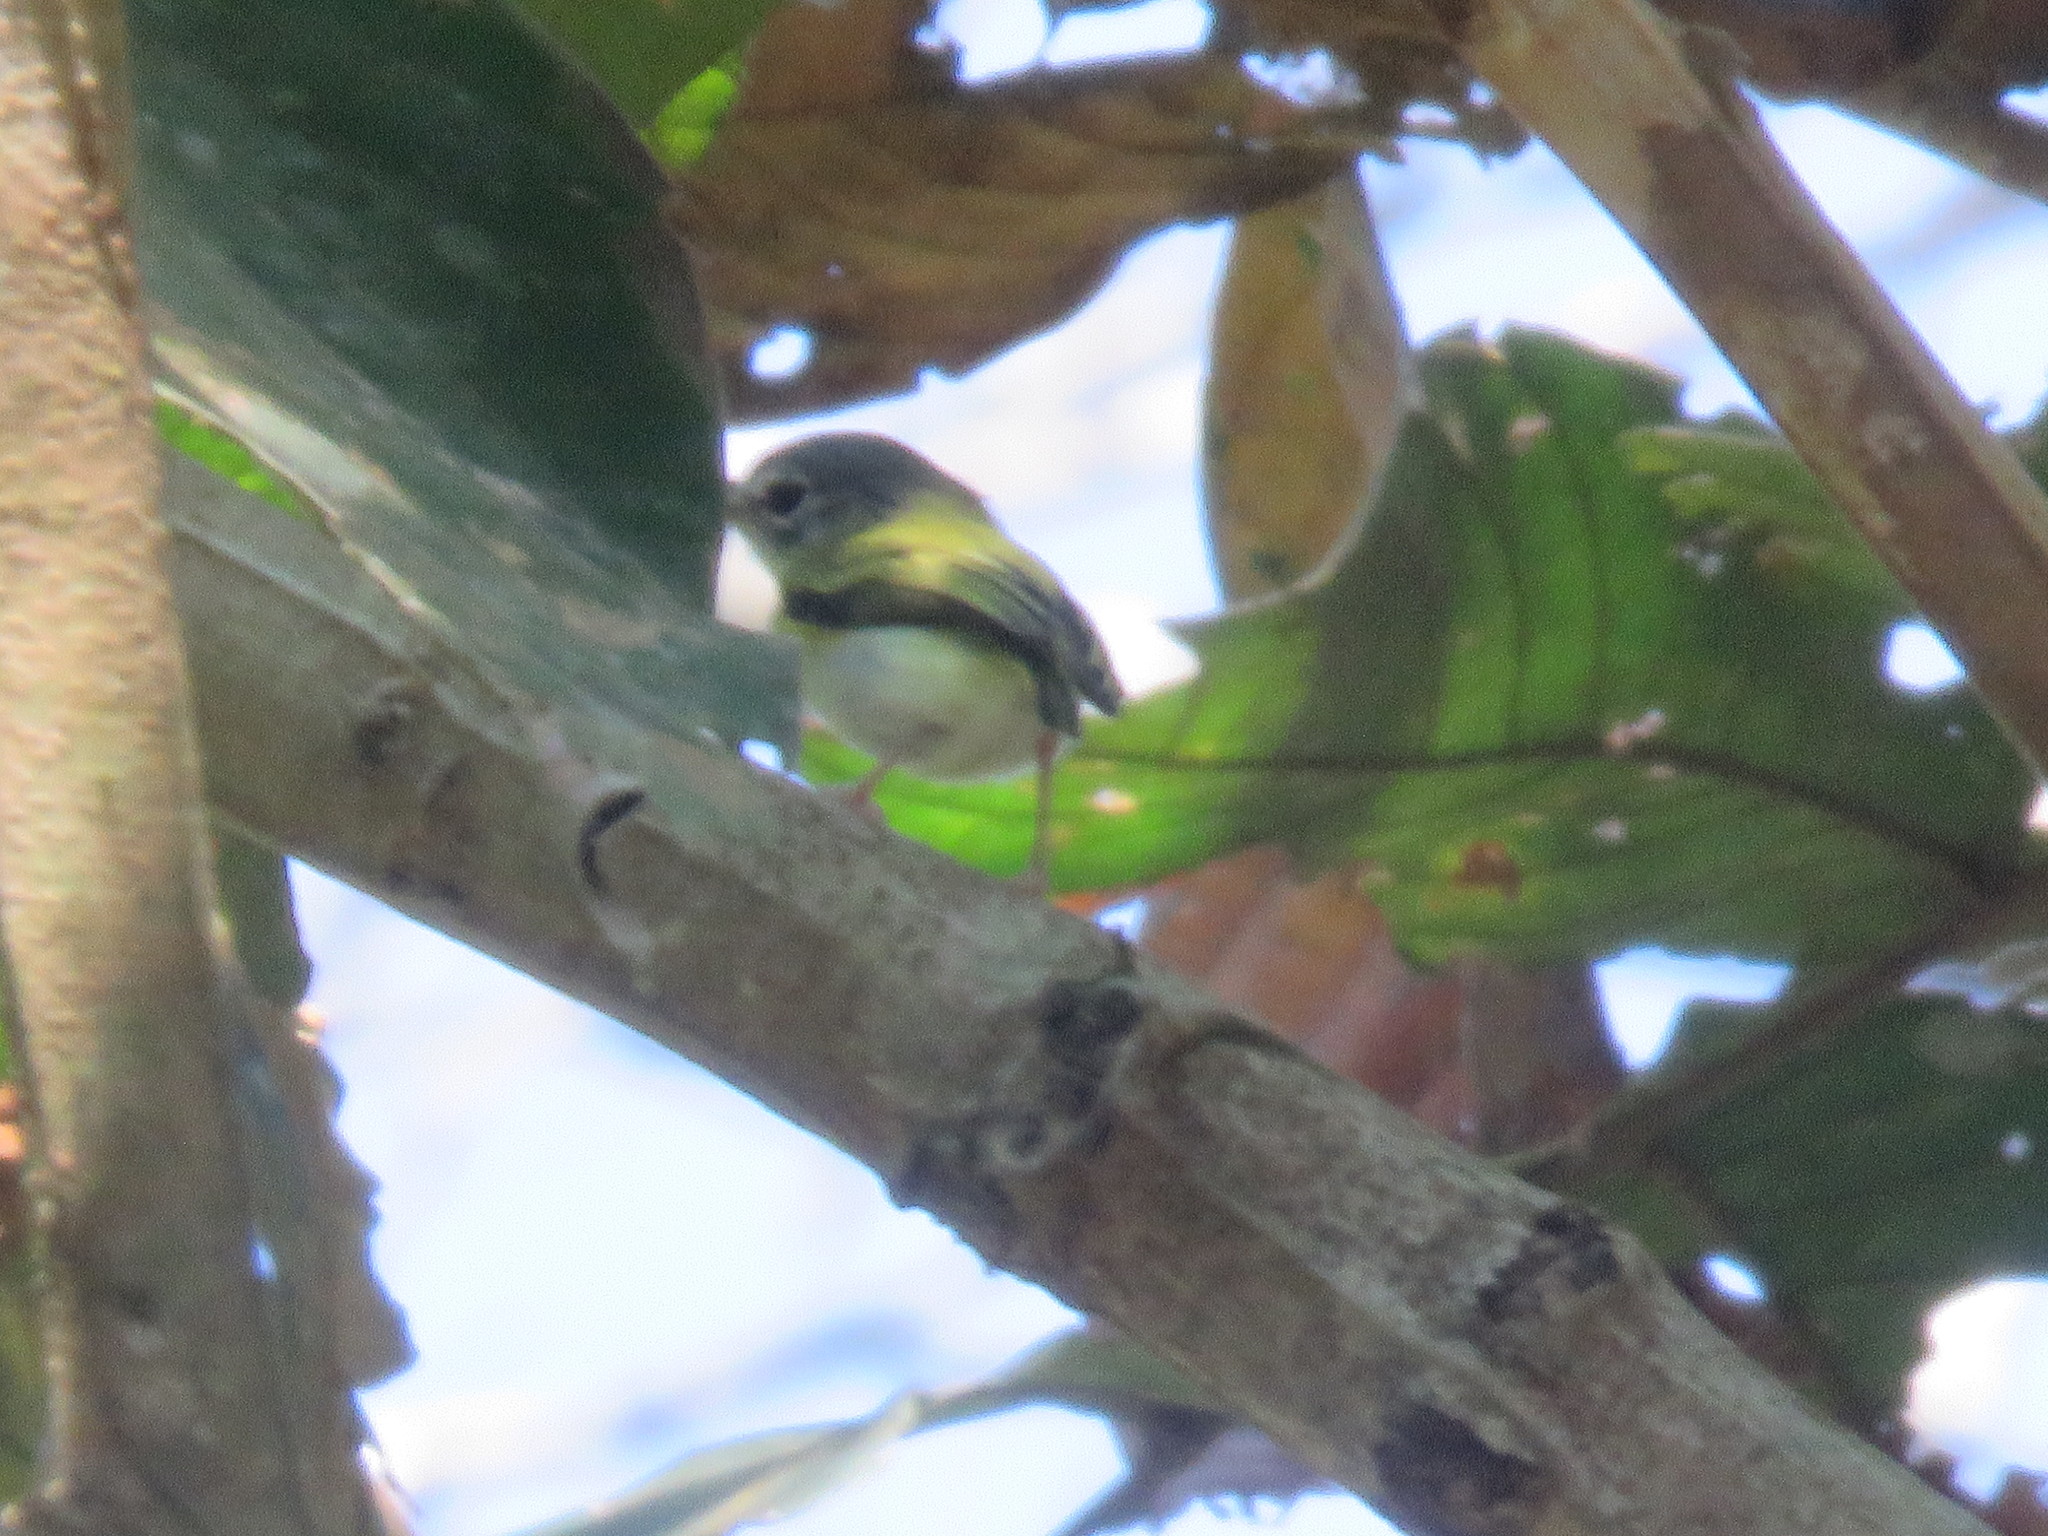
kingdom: Animalia
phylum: Chordata
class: Aves
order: Passeriformes
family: Tyrannidae
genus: Myiornis
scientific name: Myiornis ecaudatus
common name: Short-tailed pygmy tyrant
